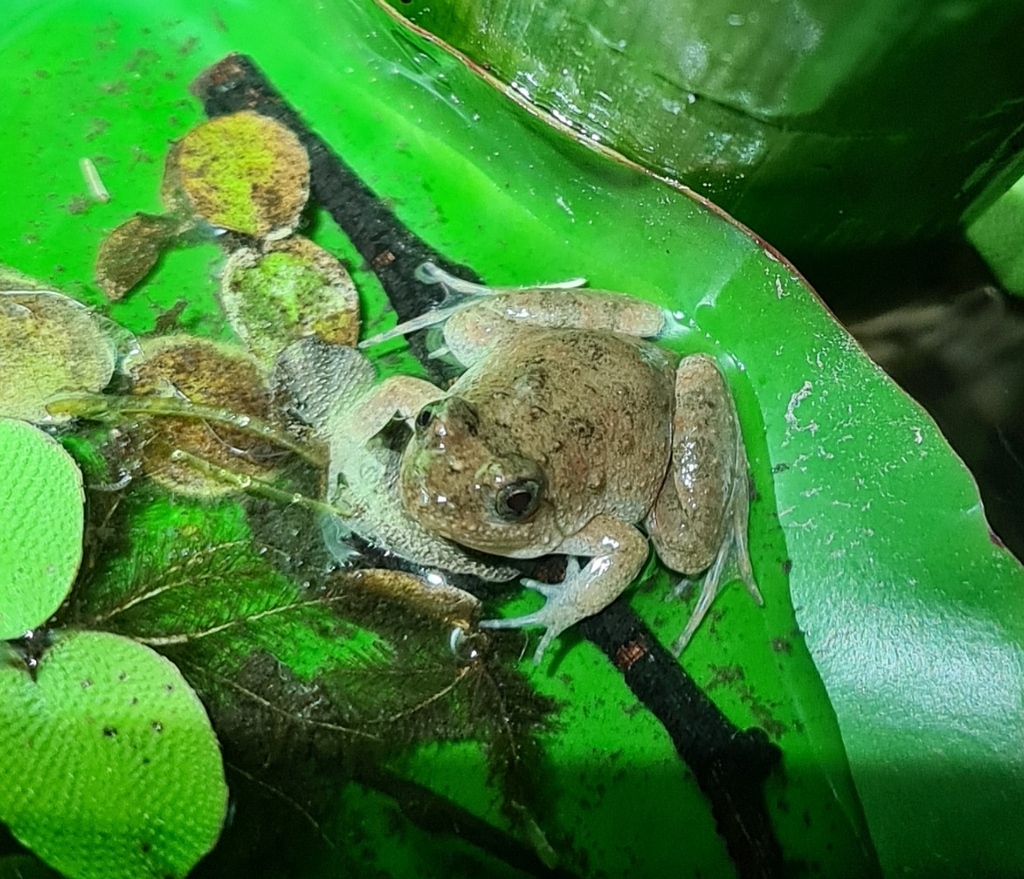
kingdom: Animalia
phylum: Chordata
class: Amphibia
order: Anura
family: Phrynobatrachidae
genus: Phrynobatrachus
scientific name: Phrynobatrachus natalensis
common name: Snoring puddle frog
